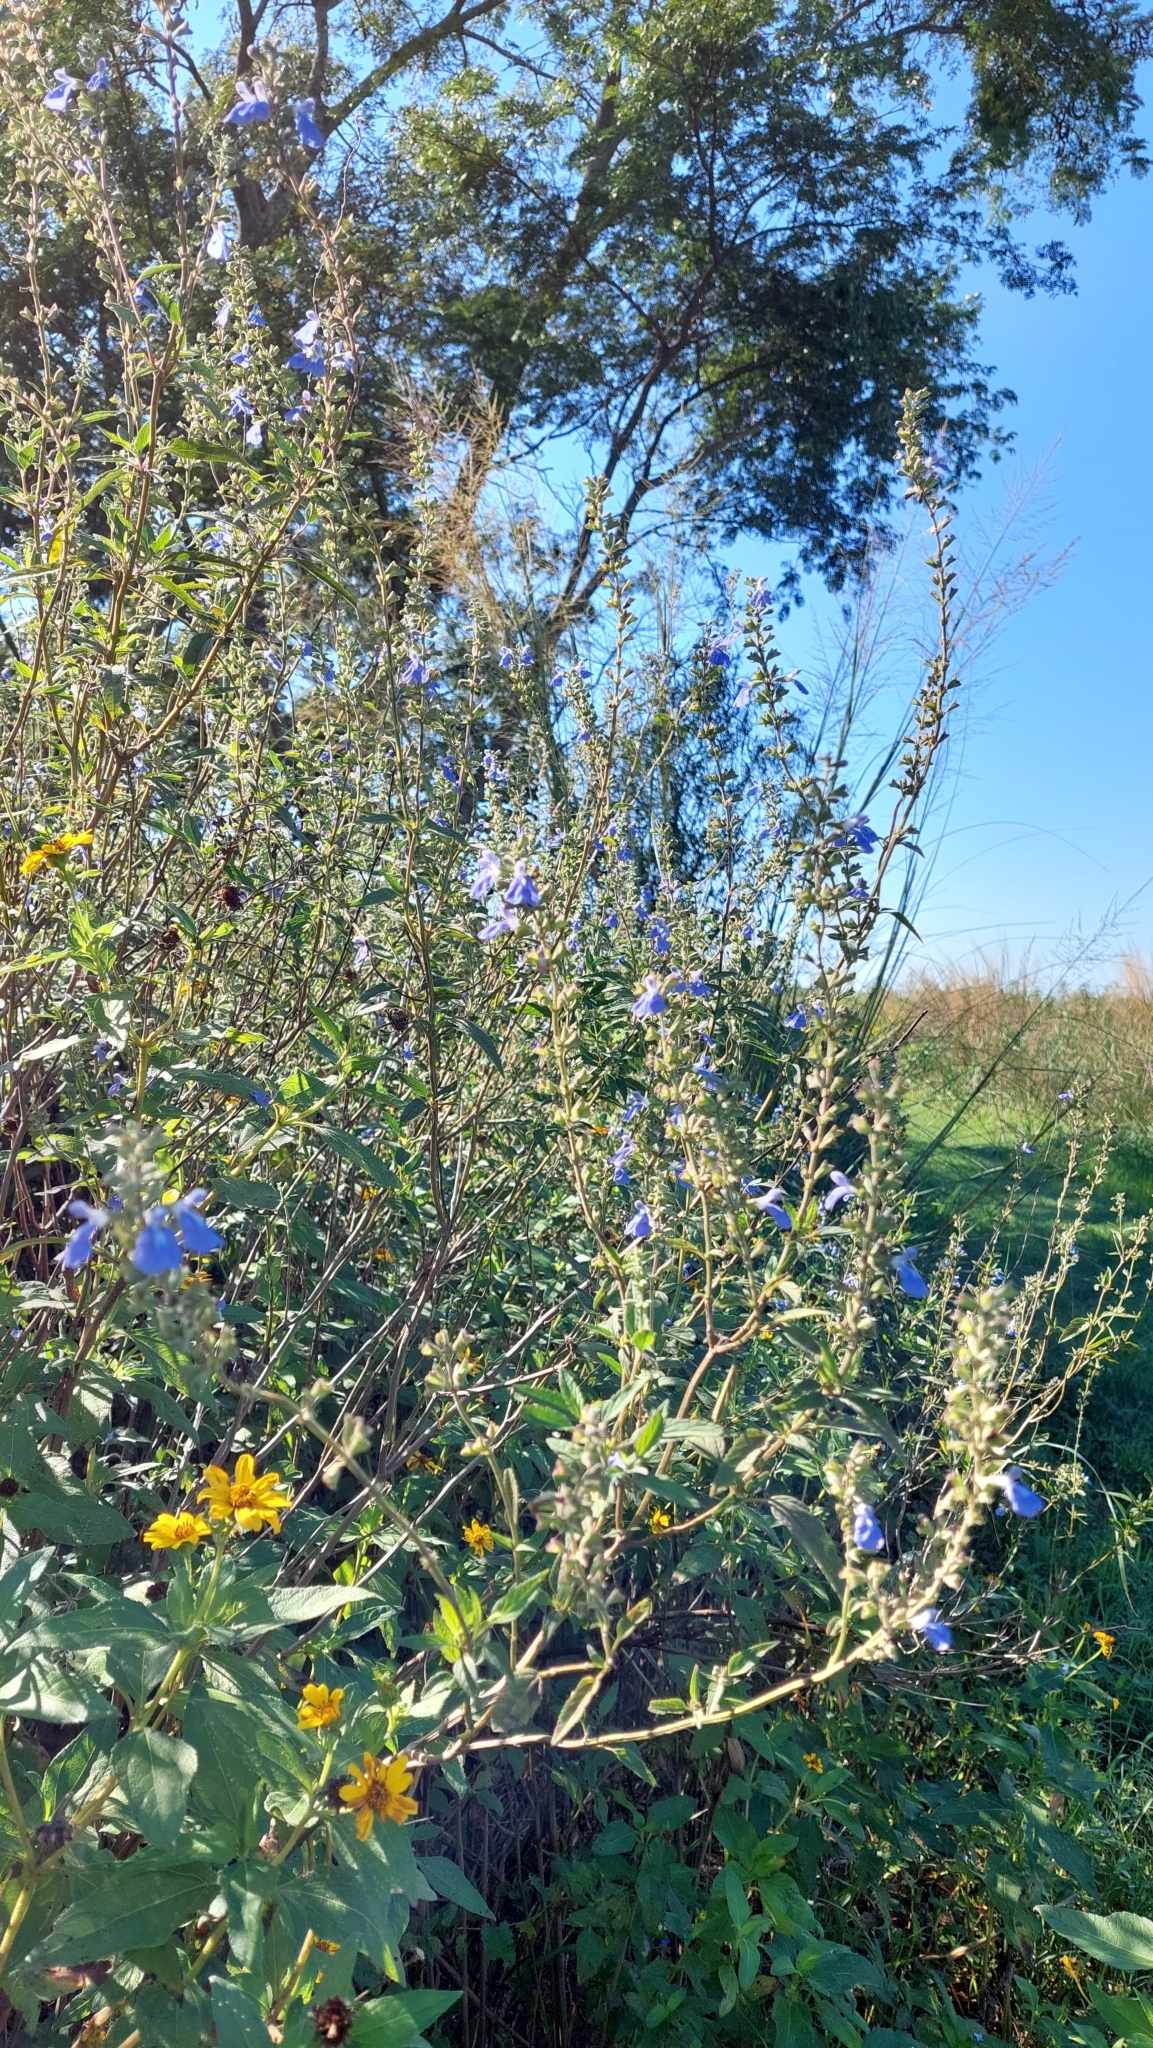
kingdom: Plantae
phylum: Tracheophyta
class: Magnoliopsida
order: Lamiales
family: Lamiaceae
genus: Salvia
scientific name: Salvia pallida
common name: Pale sage
